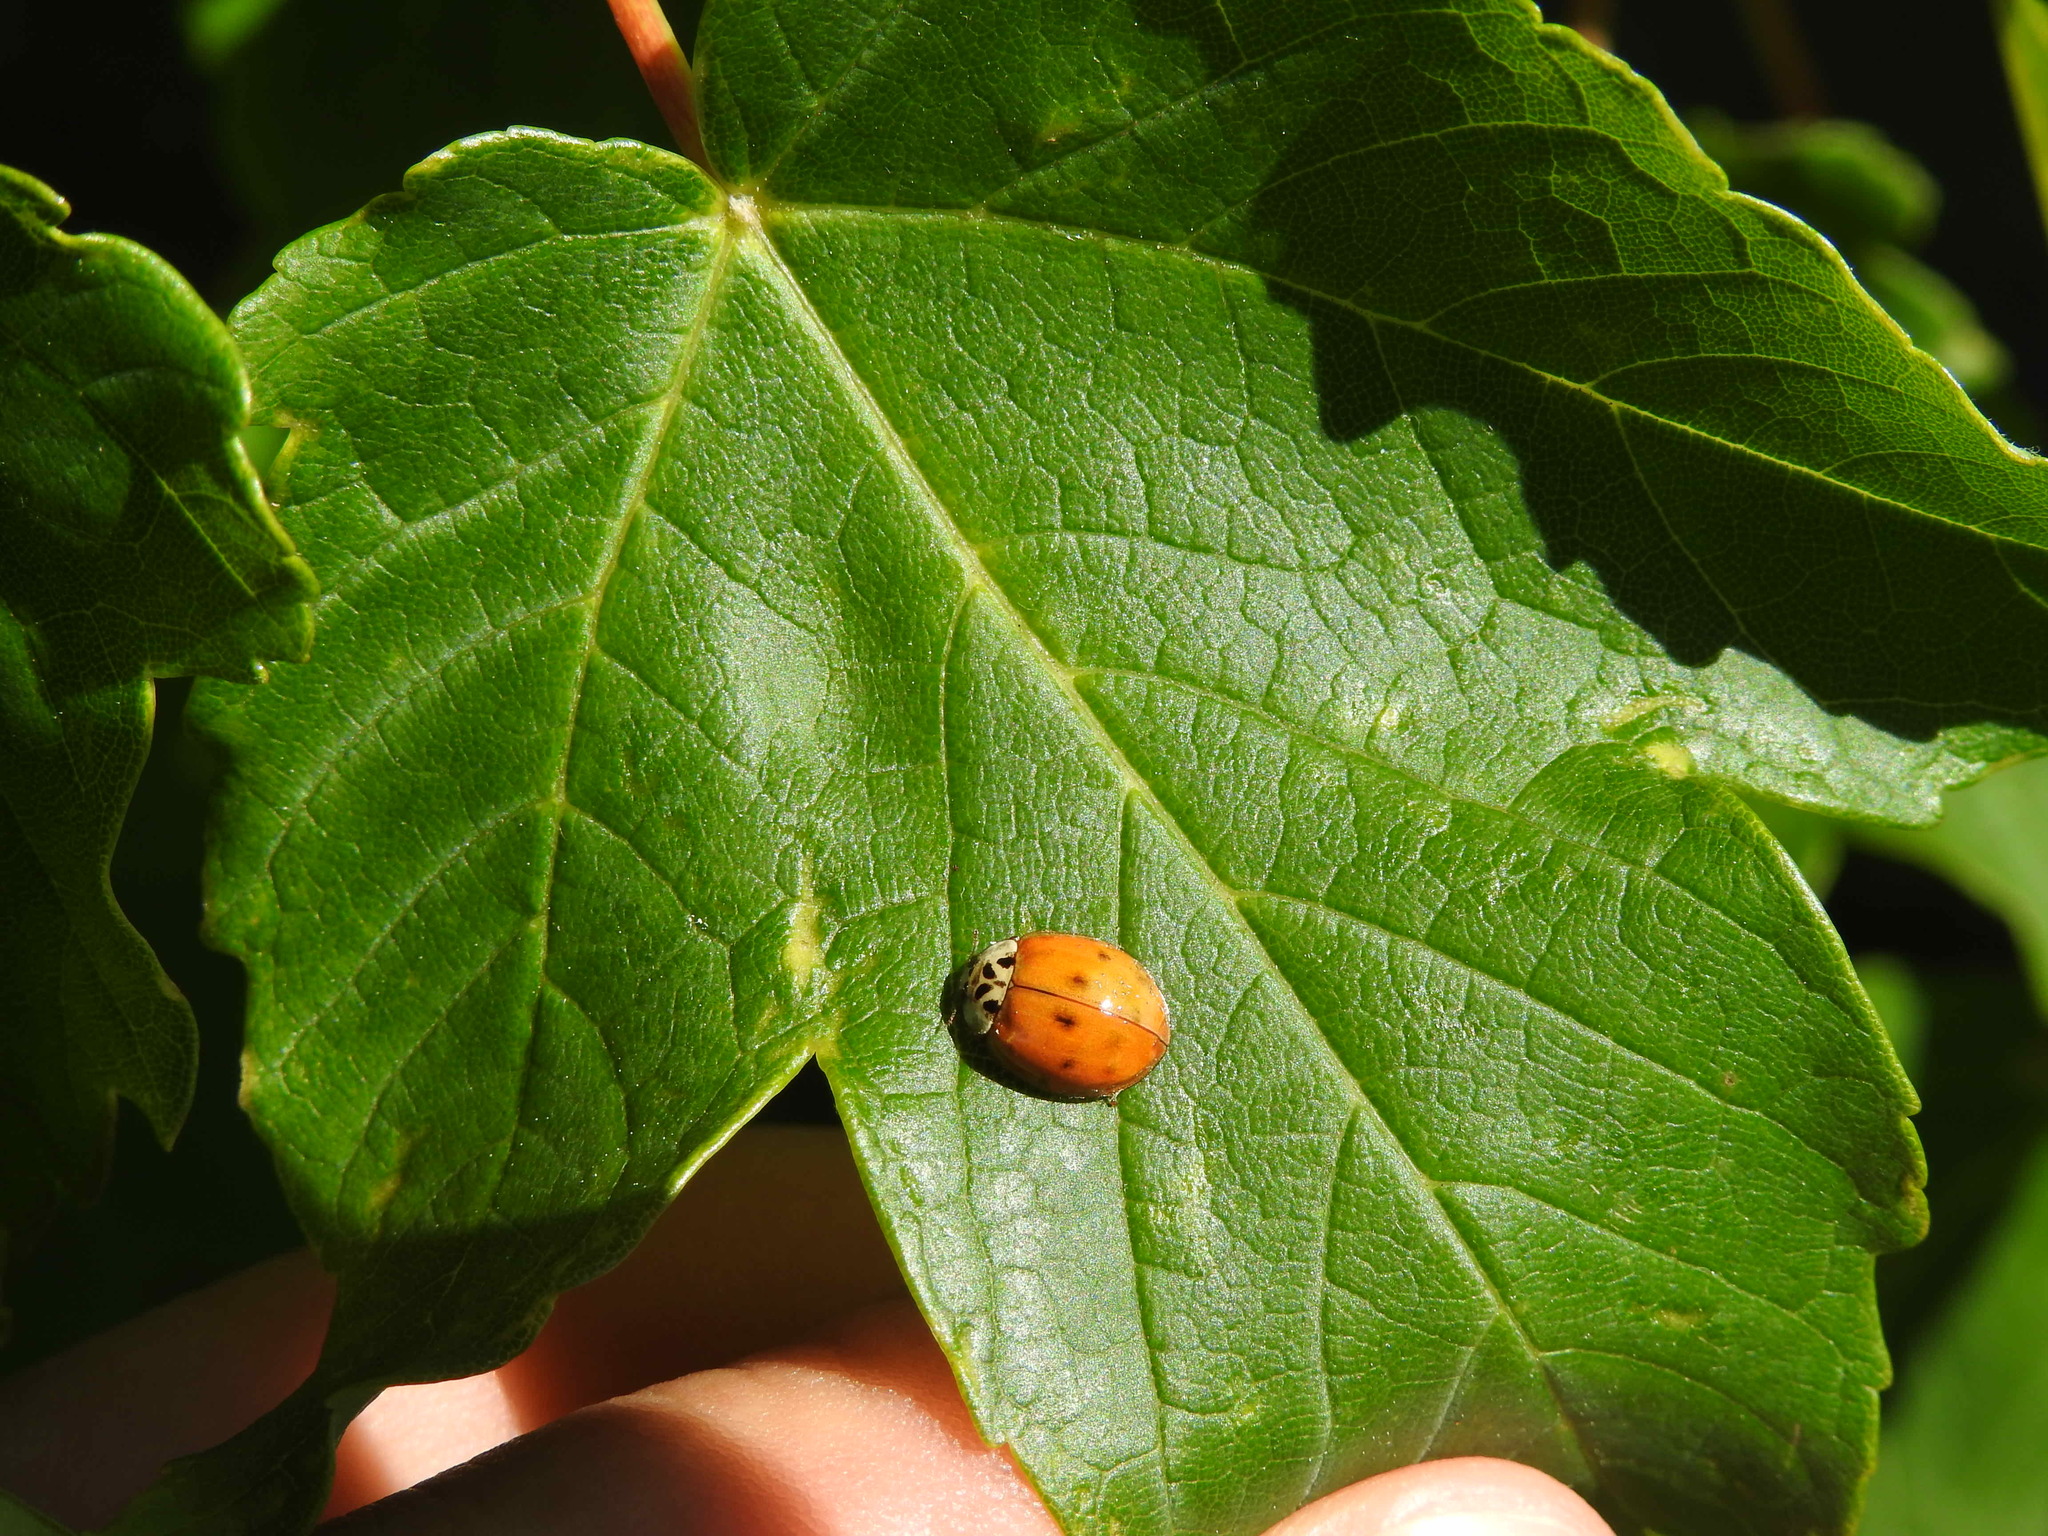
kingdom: Animalia
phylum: Arthropoda
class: Insecta
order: Coleoptera
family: Coccinellidae
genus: Harmonia
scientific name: Harmonia axyridis
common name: Harlequin ladybird
